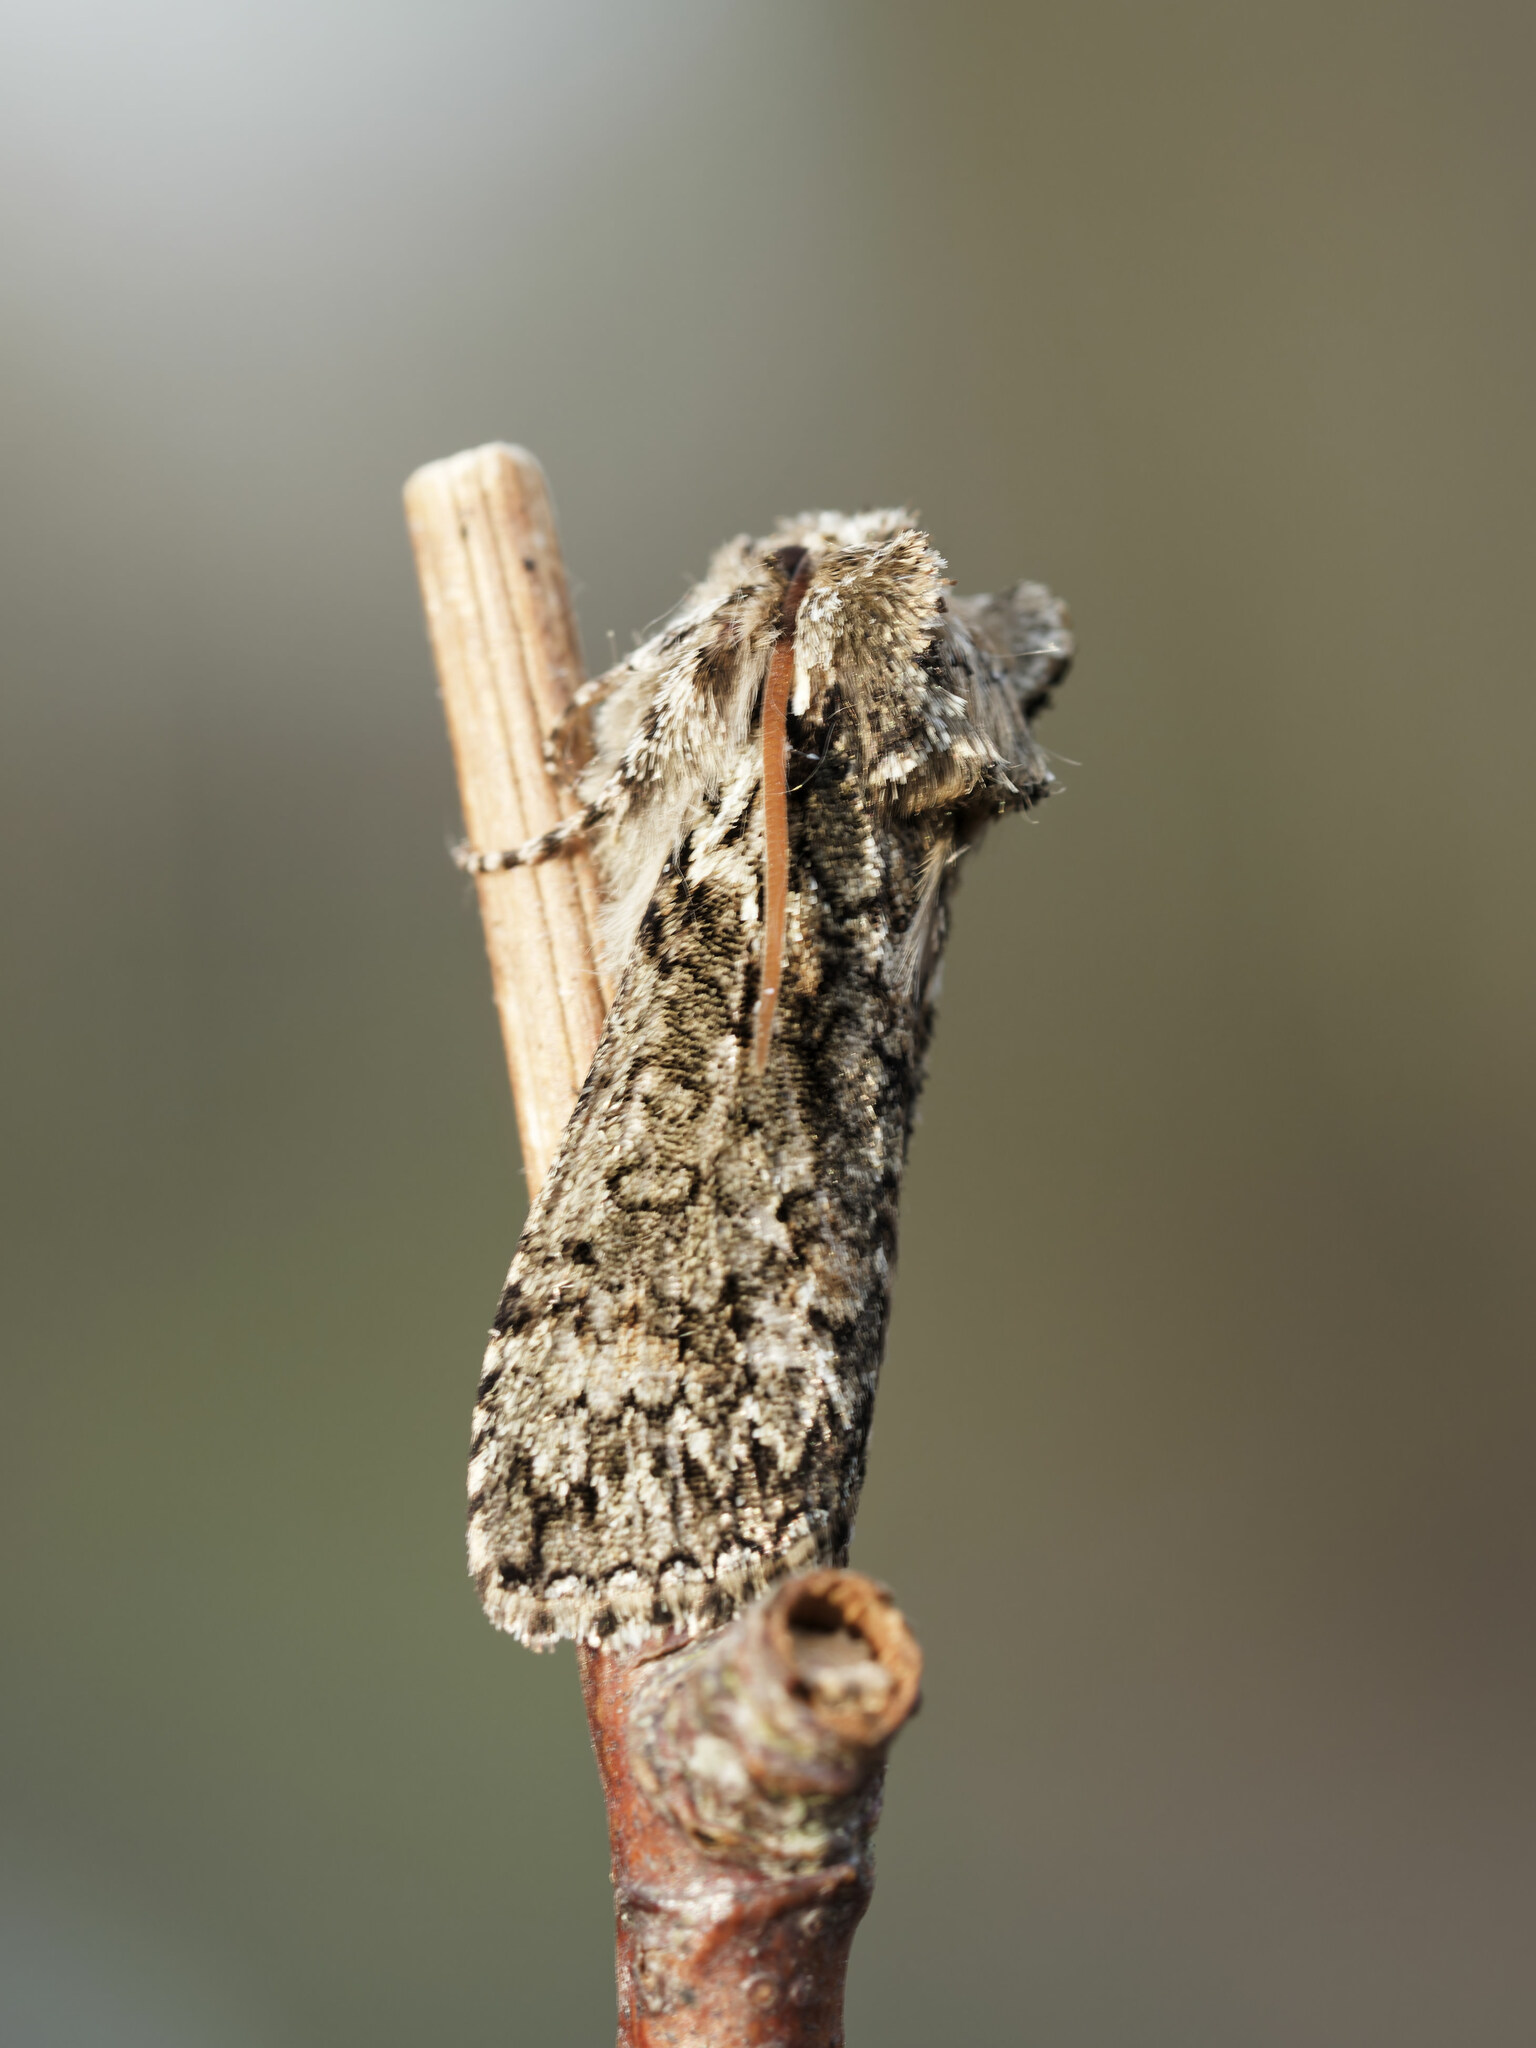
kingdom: Animalia
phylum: Arthropoda
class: Insecta
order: Lepidoptera
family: Drepanidae
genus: Polyploca
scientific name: Polyploca ridens
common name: Frosted green
